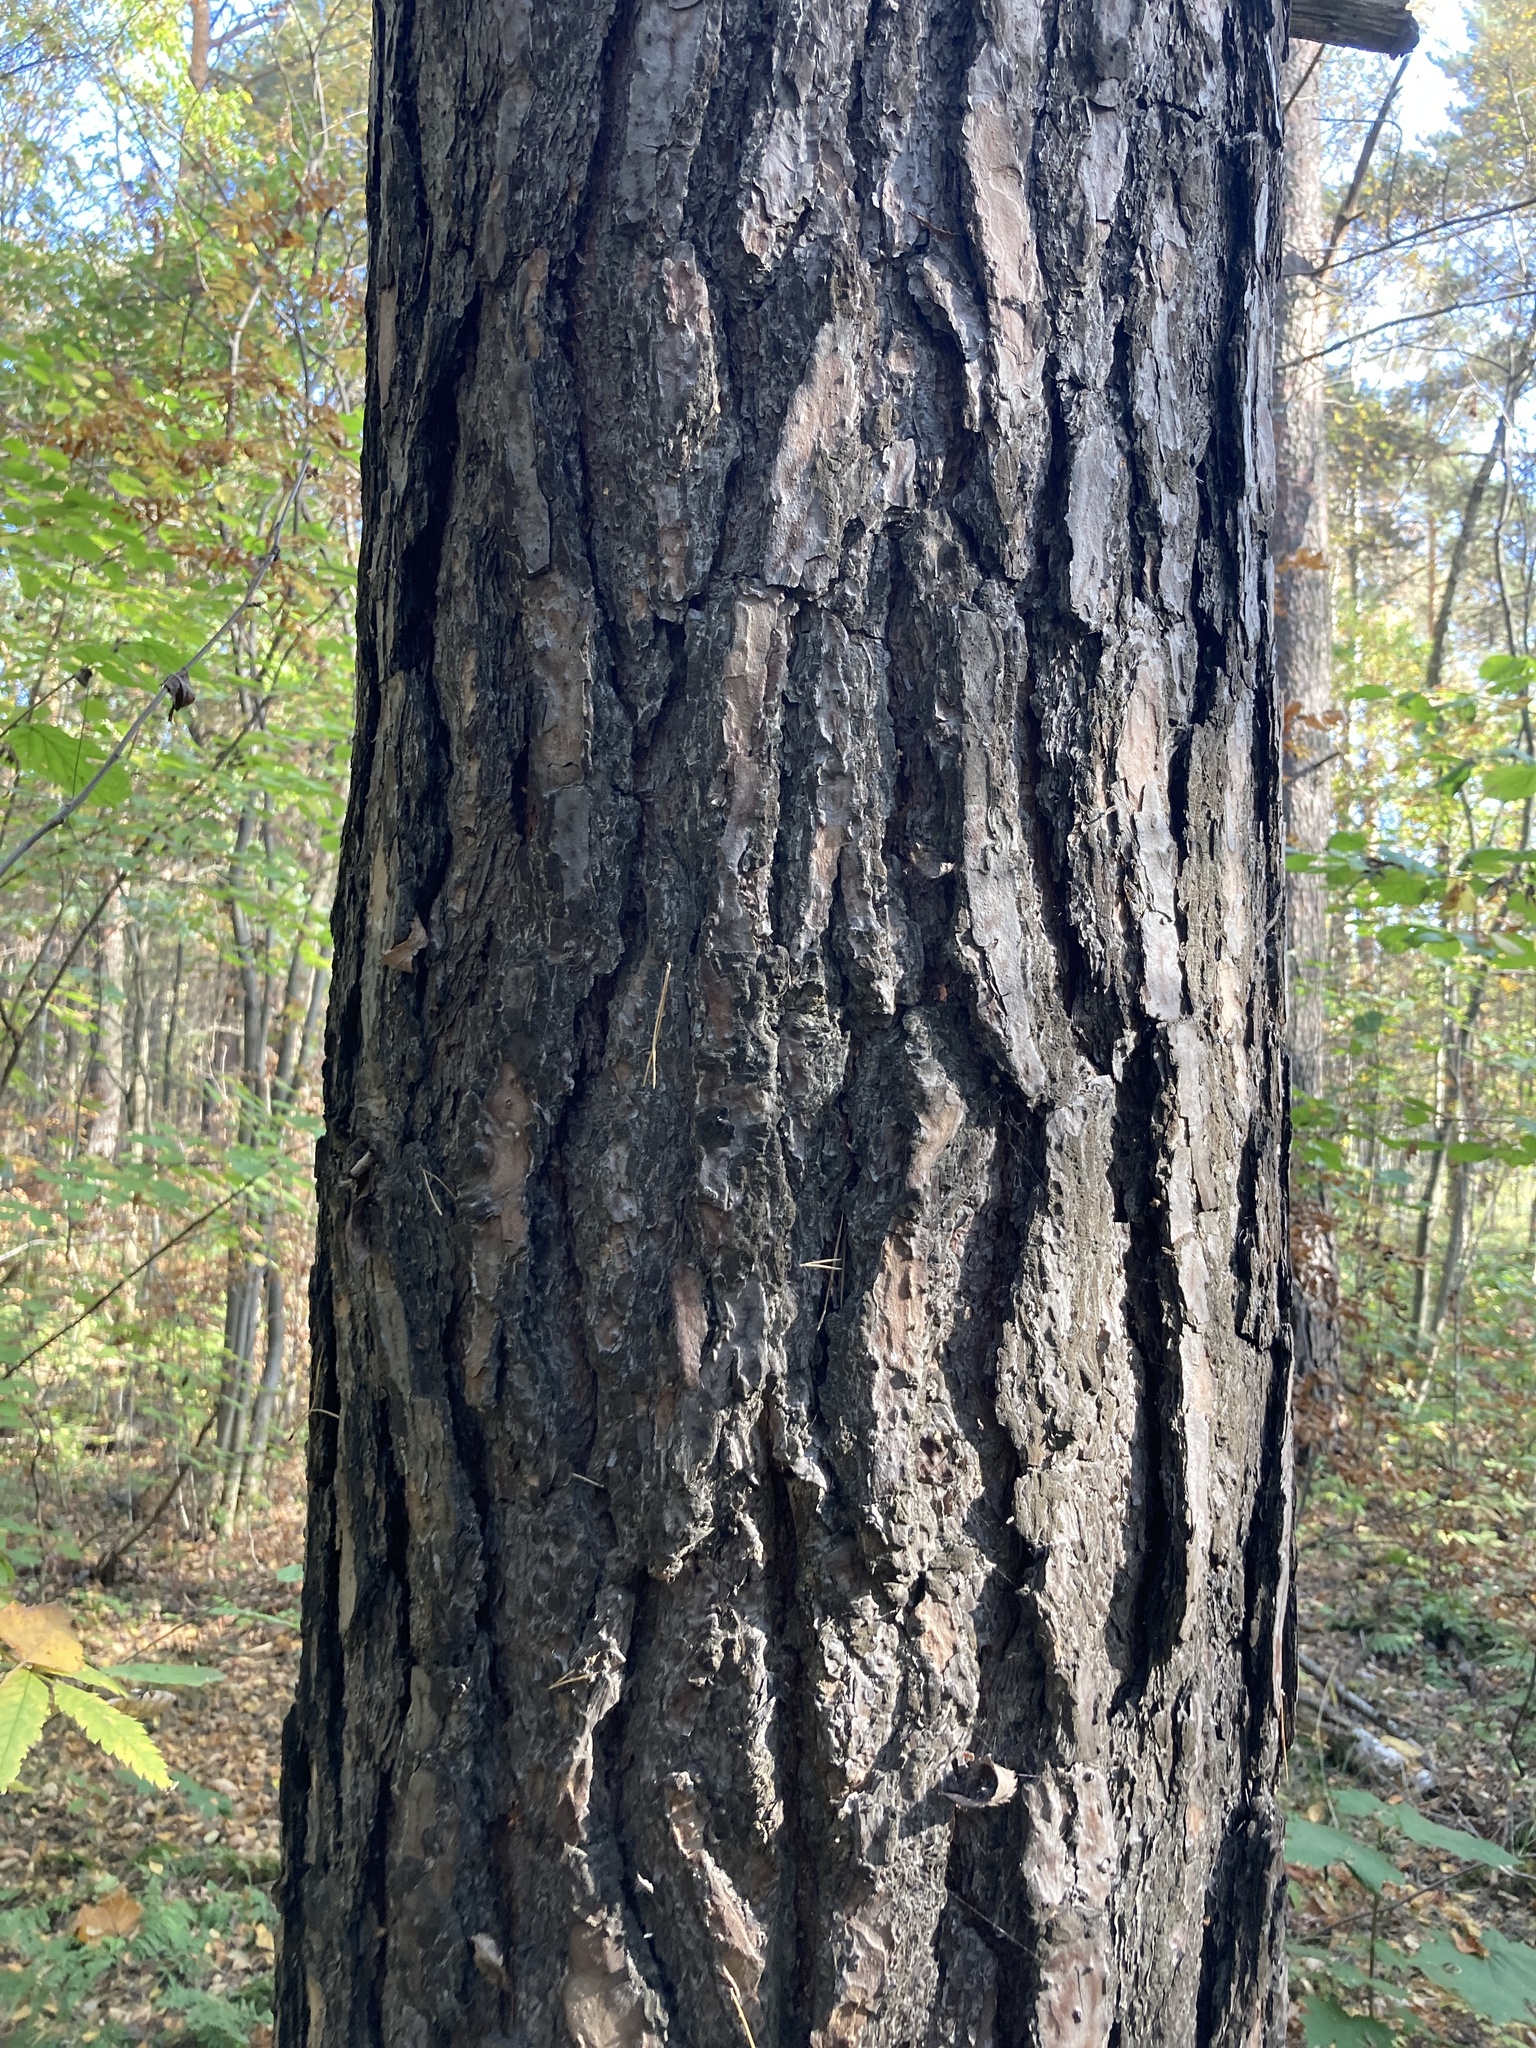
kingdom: Plantae
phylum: Tracheophyta
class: Pinopsida
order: Pinales
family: Pinaceae
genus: Pinus
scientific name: Pinus sylvestris
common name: Scots pine
